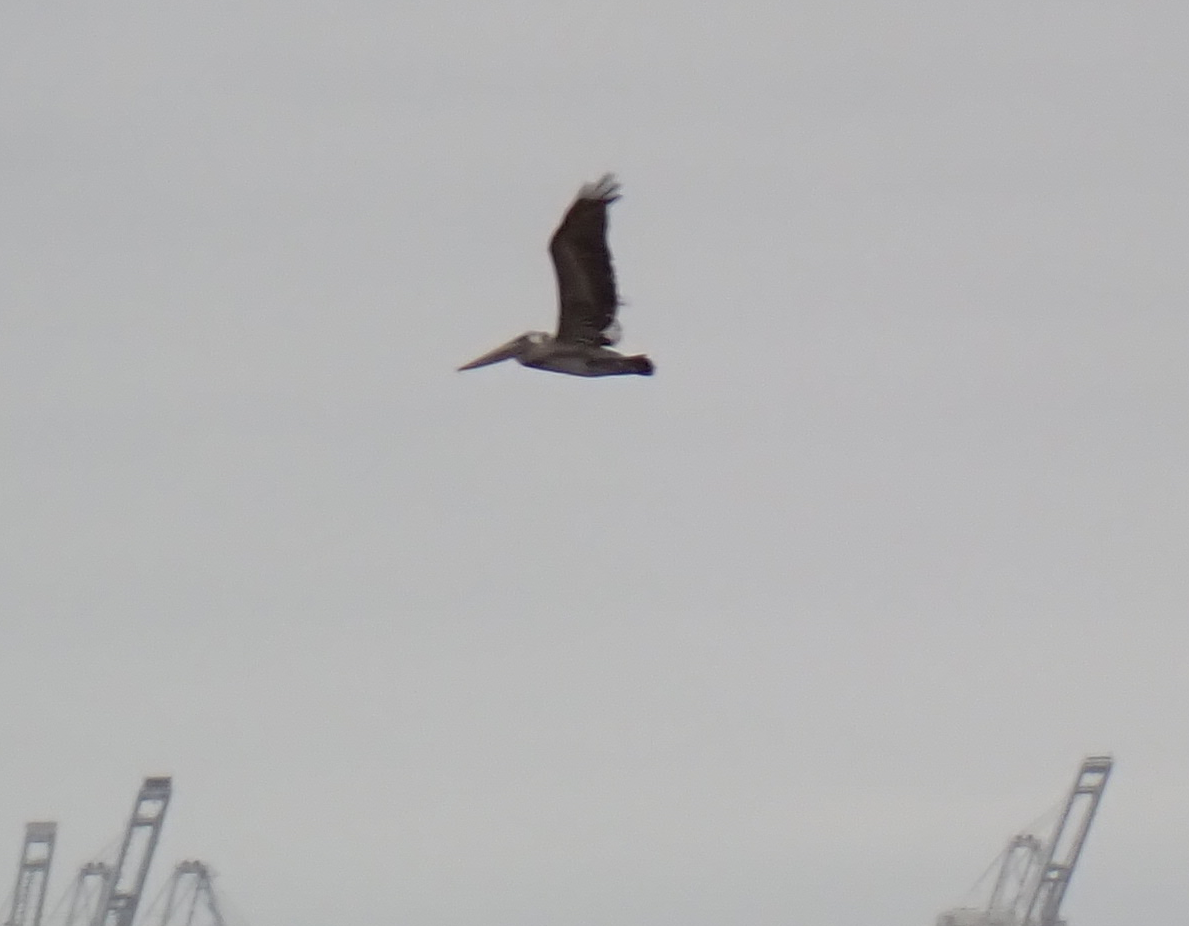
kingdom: Animalia
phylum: Chordata
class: Aves
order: Pelecaniformes
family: Pelecanidae
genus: Pelecanus
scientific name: Pelecanus occidentalis
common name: Brown pelican
